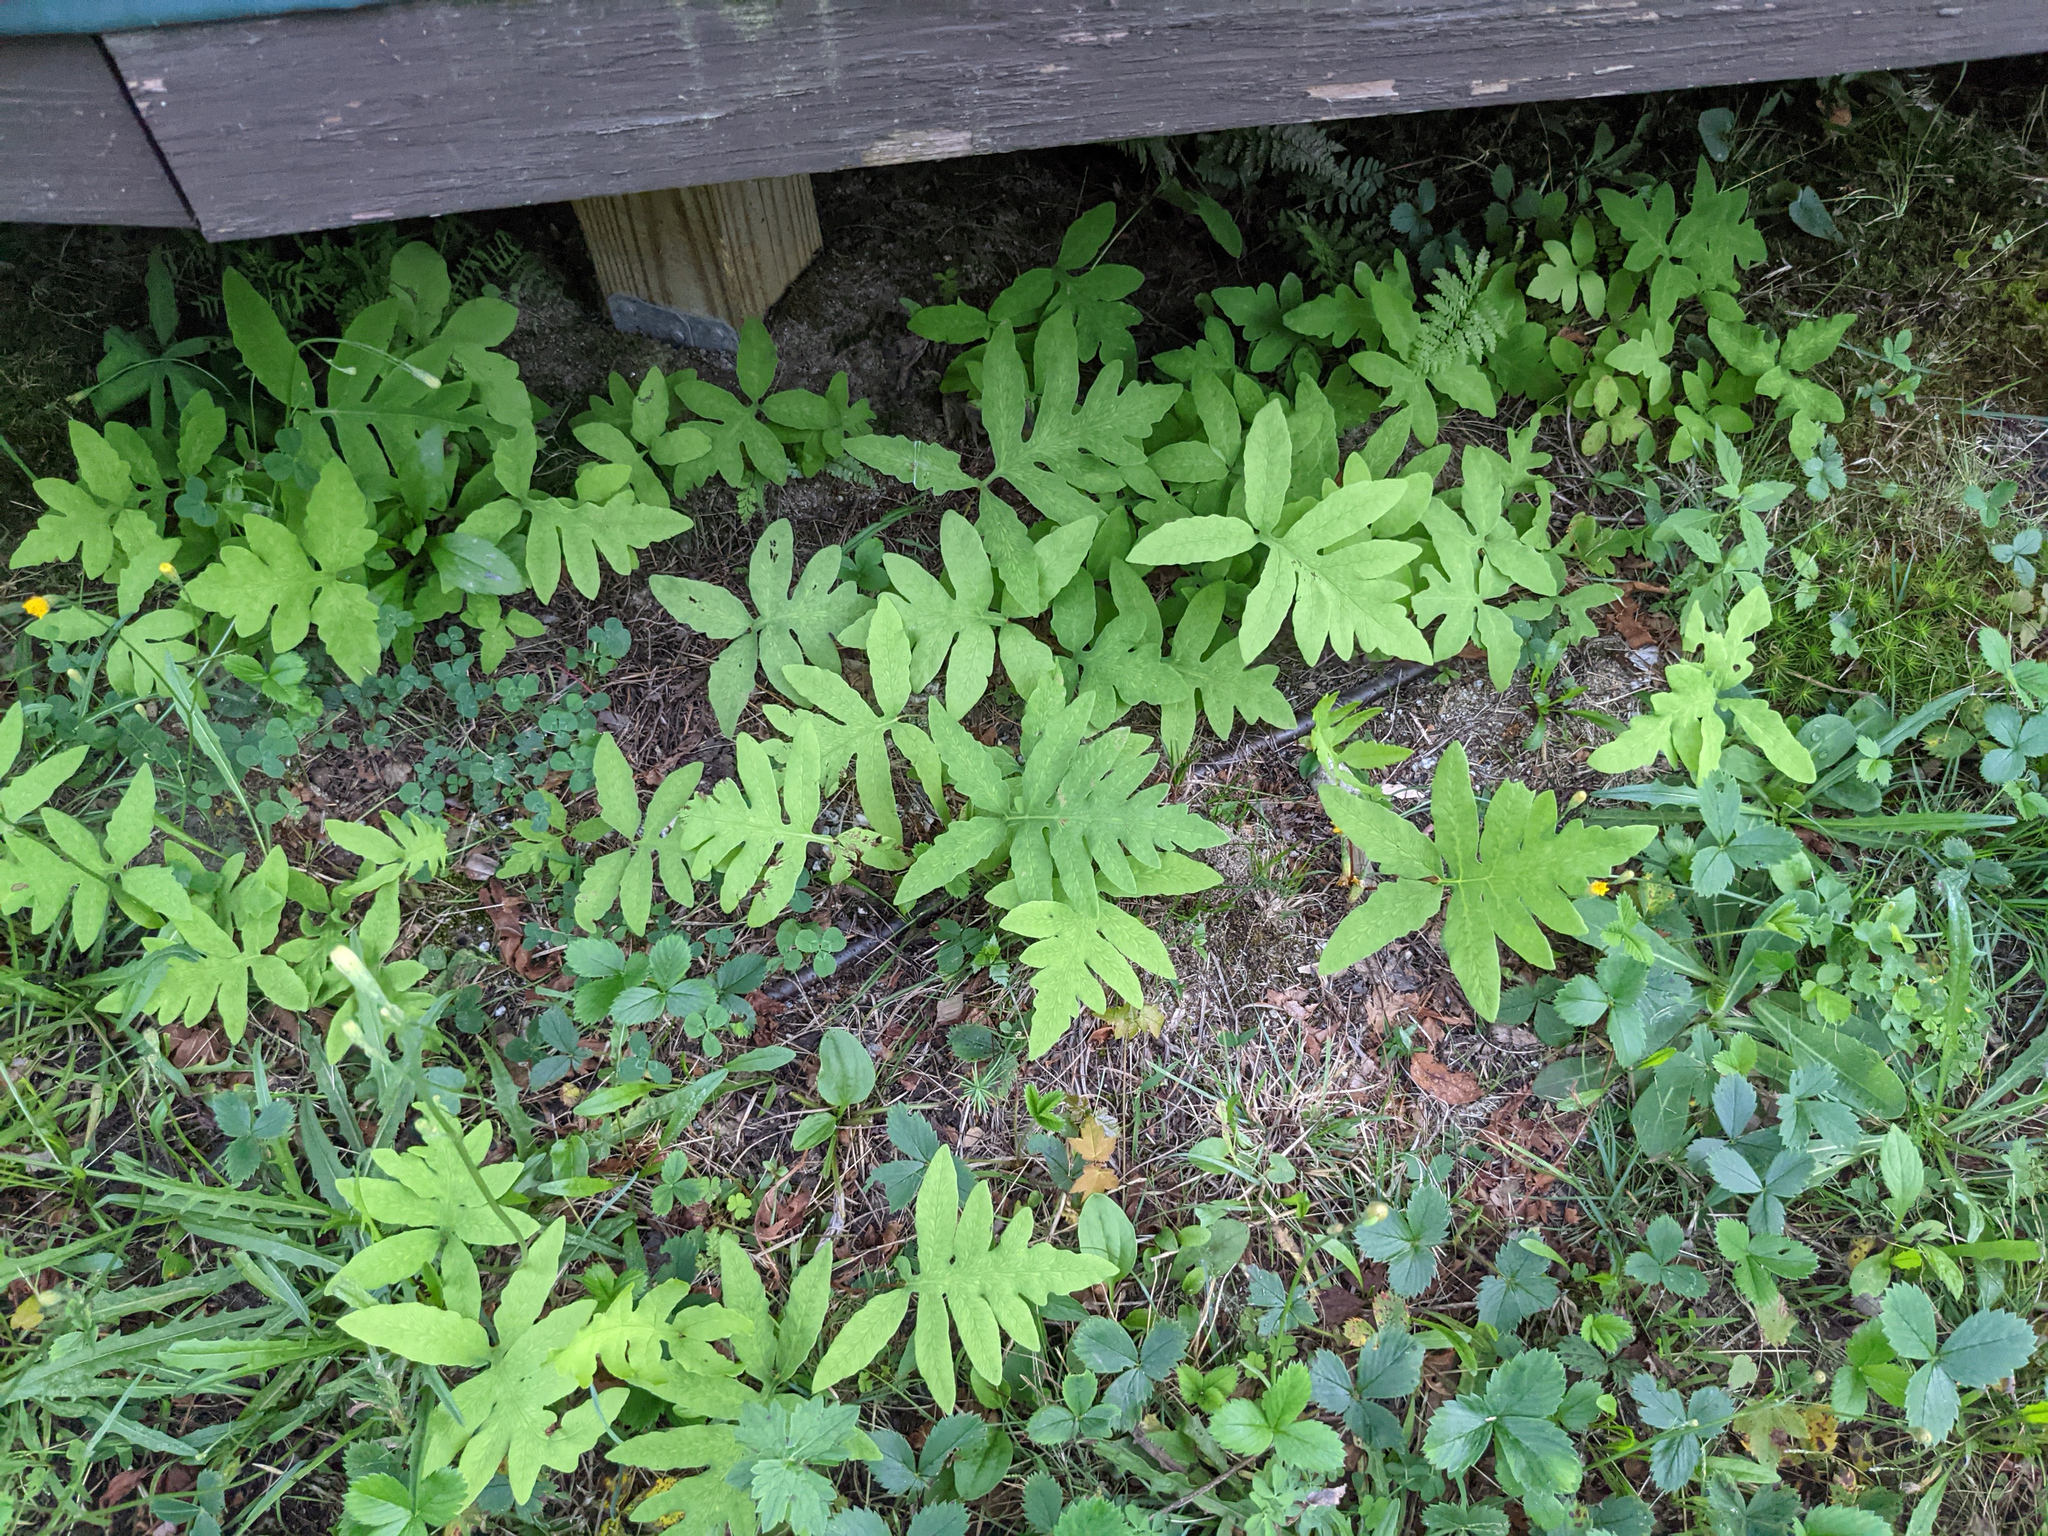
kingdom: Plantae
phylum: Tracheophyta
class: Polypodiopsida
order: Polypodiales
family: Onocleaceae
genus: Onoclea
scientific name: Onoclea sensibilis
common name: Sensitive fern
